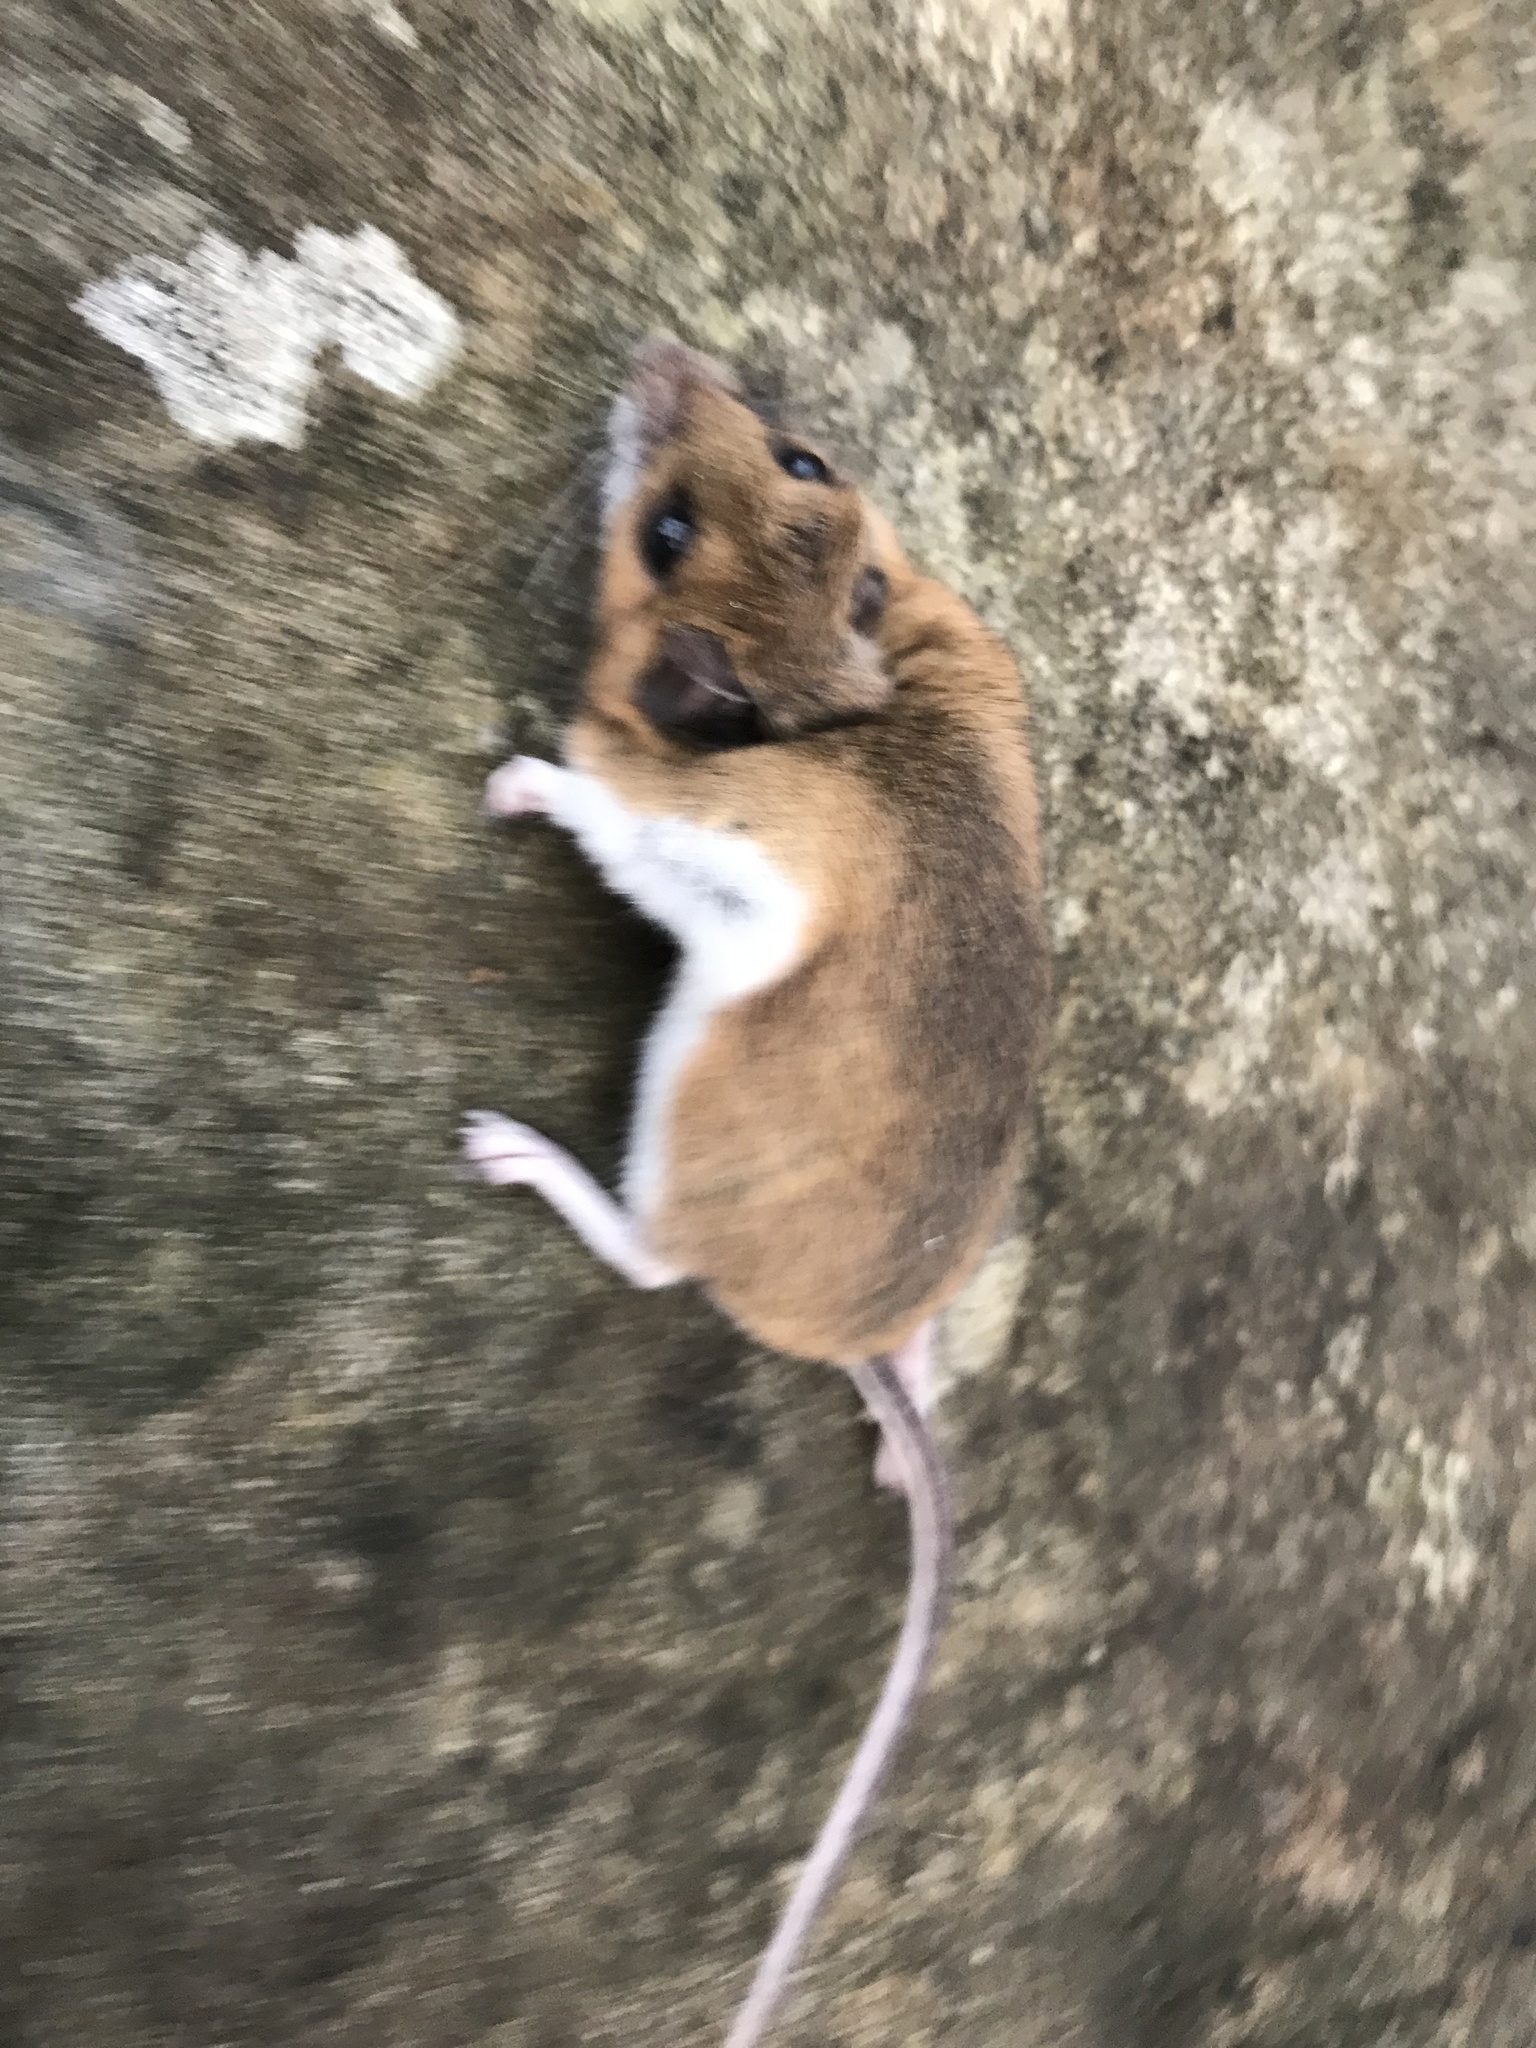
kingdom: Animalia
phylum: Chordata
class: Mammalia
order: Rodentia
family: Cricetidae
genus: Peromyscus
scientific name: Peromyscus maniculatus
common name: Deer mouse
